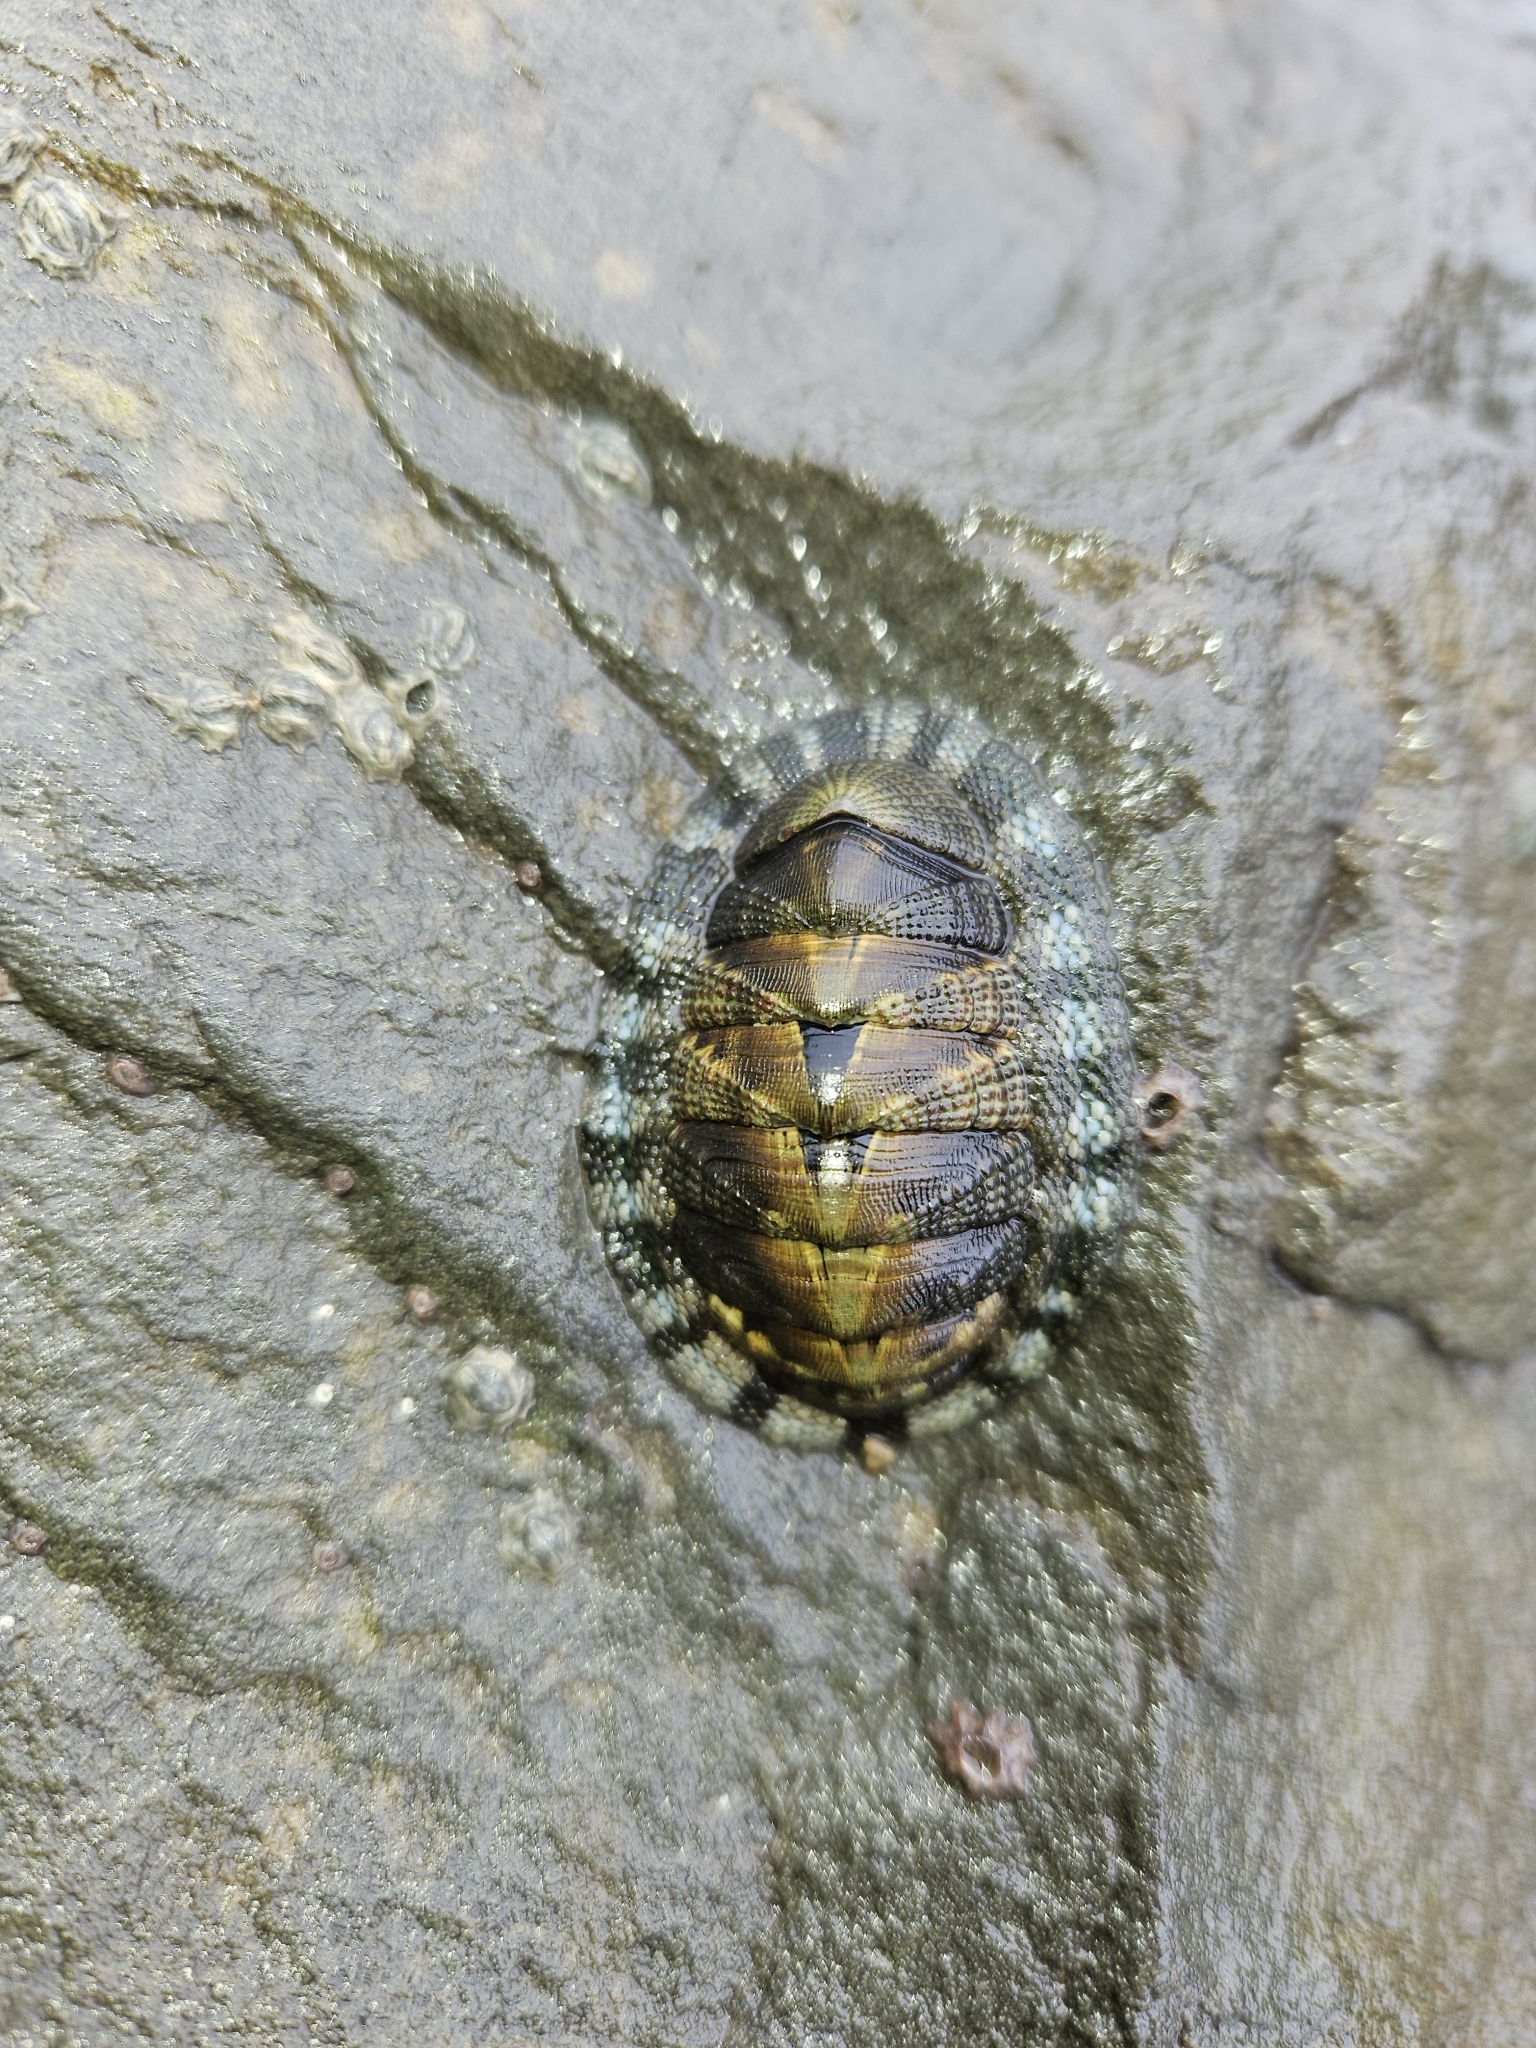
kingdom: Animalia
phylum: Mollusca
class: Polyplacophora
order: Chitonida
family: Chitonidae
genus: Sypharochiton
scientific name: Sypharochiton pelliserpentis
